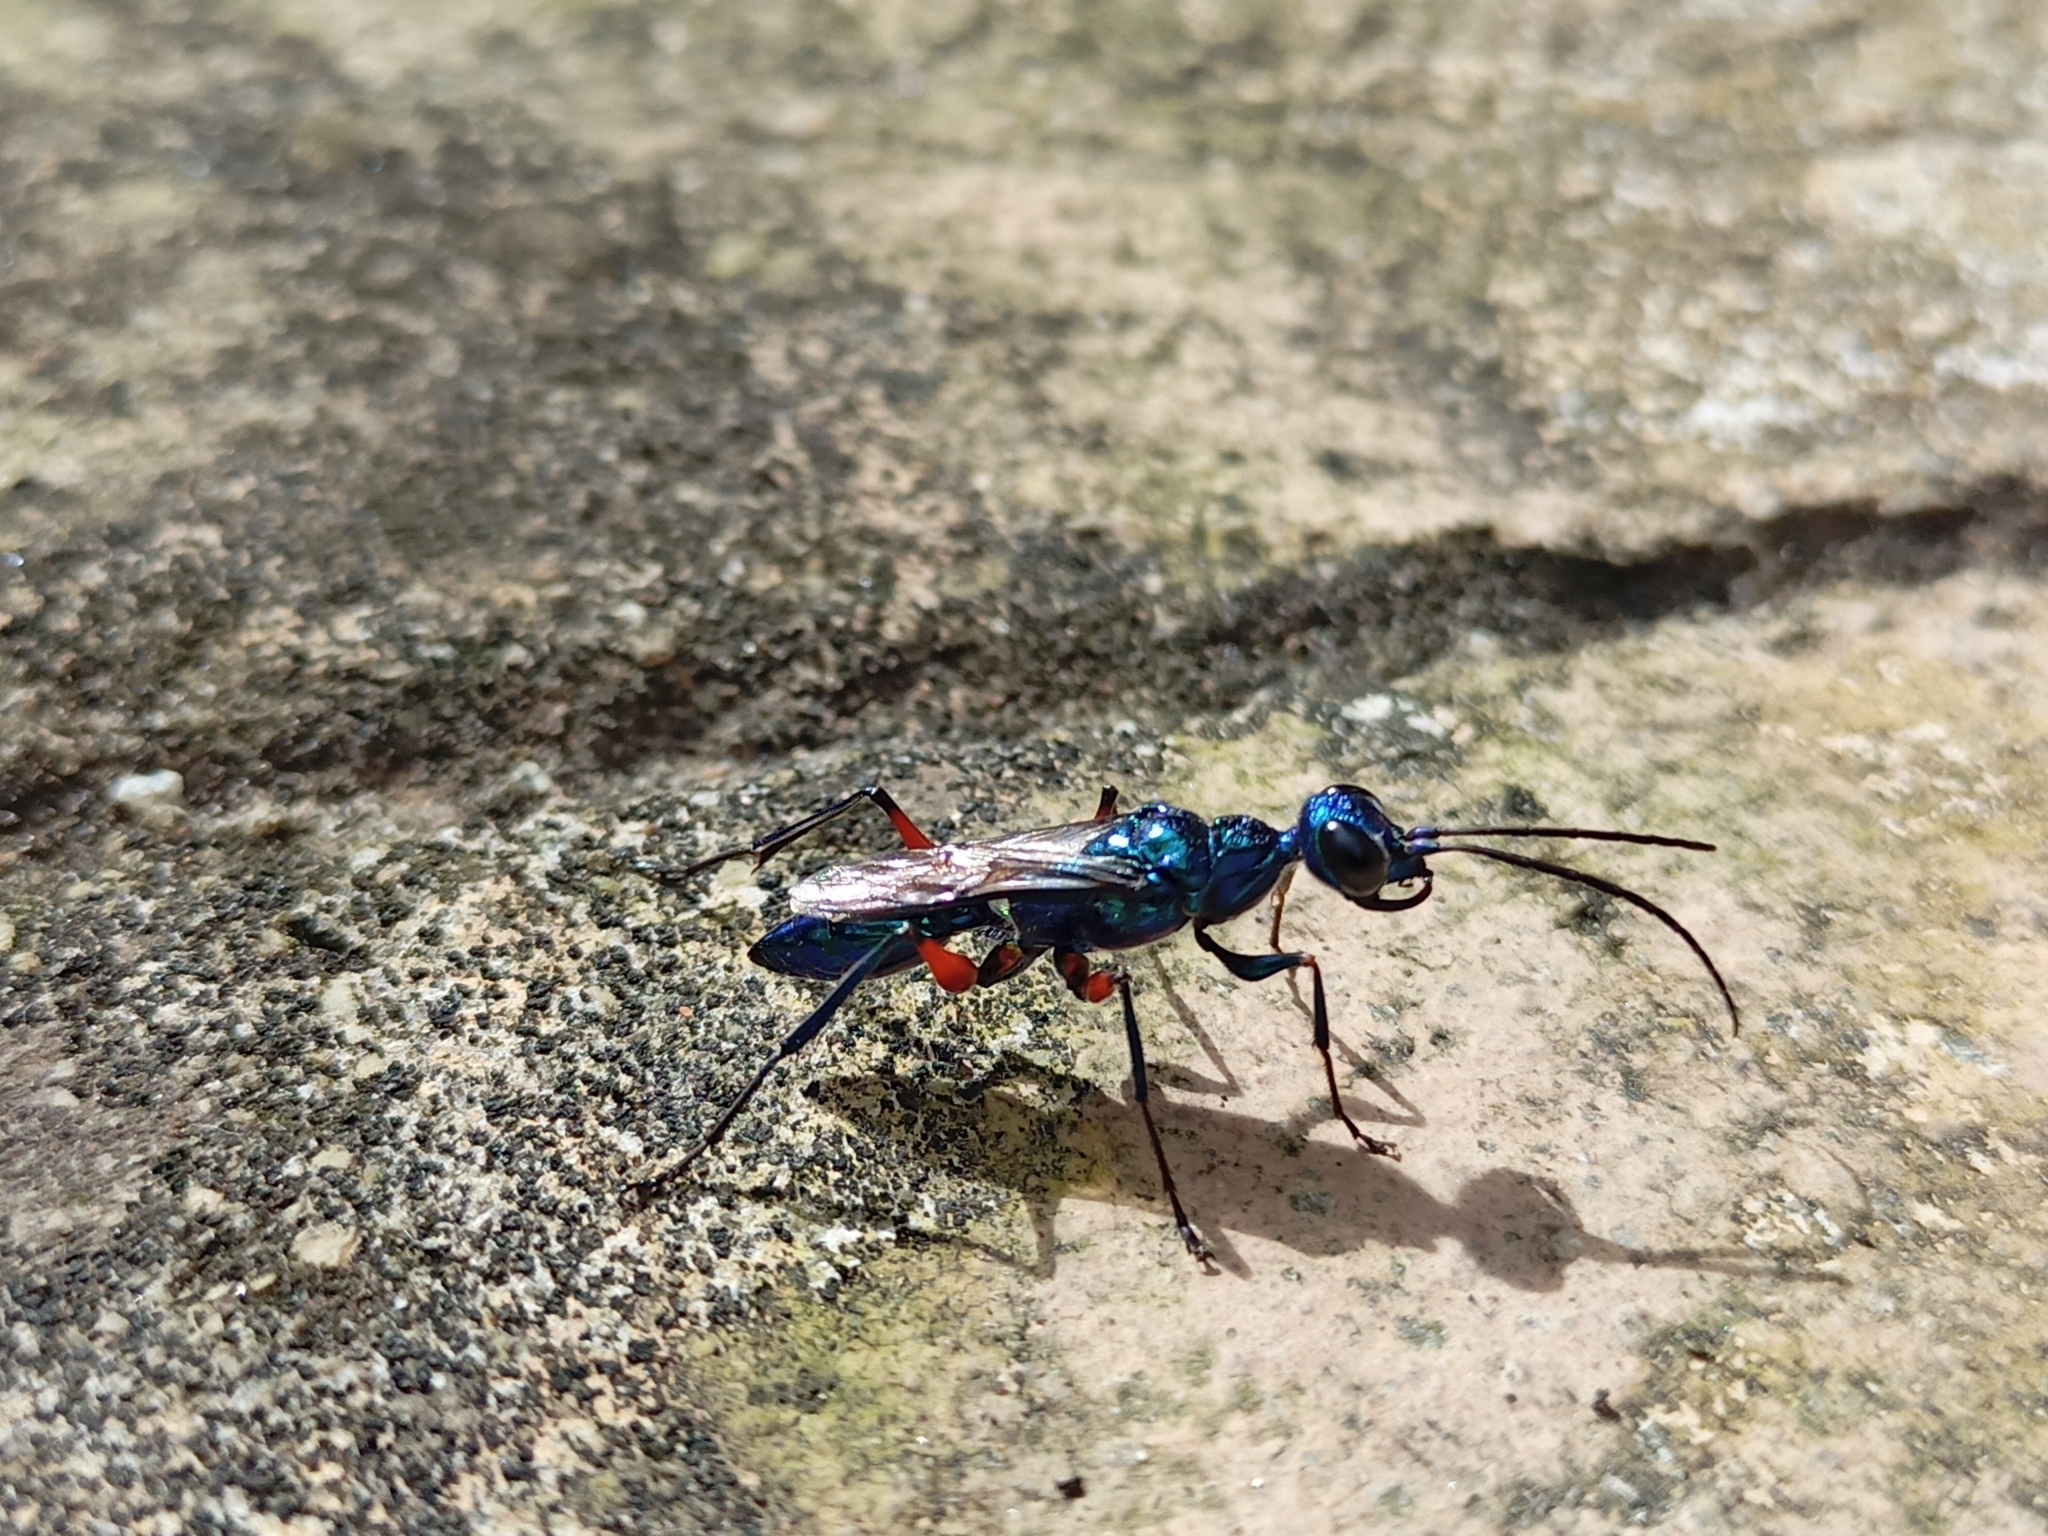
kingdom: Animalia
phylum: Arthropoda
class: Insecta
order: Hymenoptera
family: Ampulicidae
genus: Ampulex
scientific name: Ampulex compressa
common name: Emerald cockroach wasp
